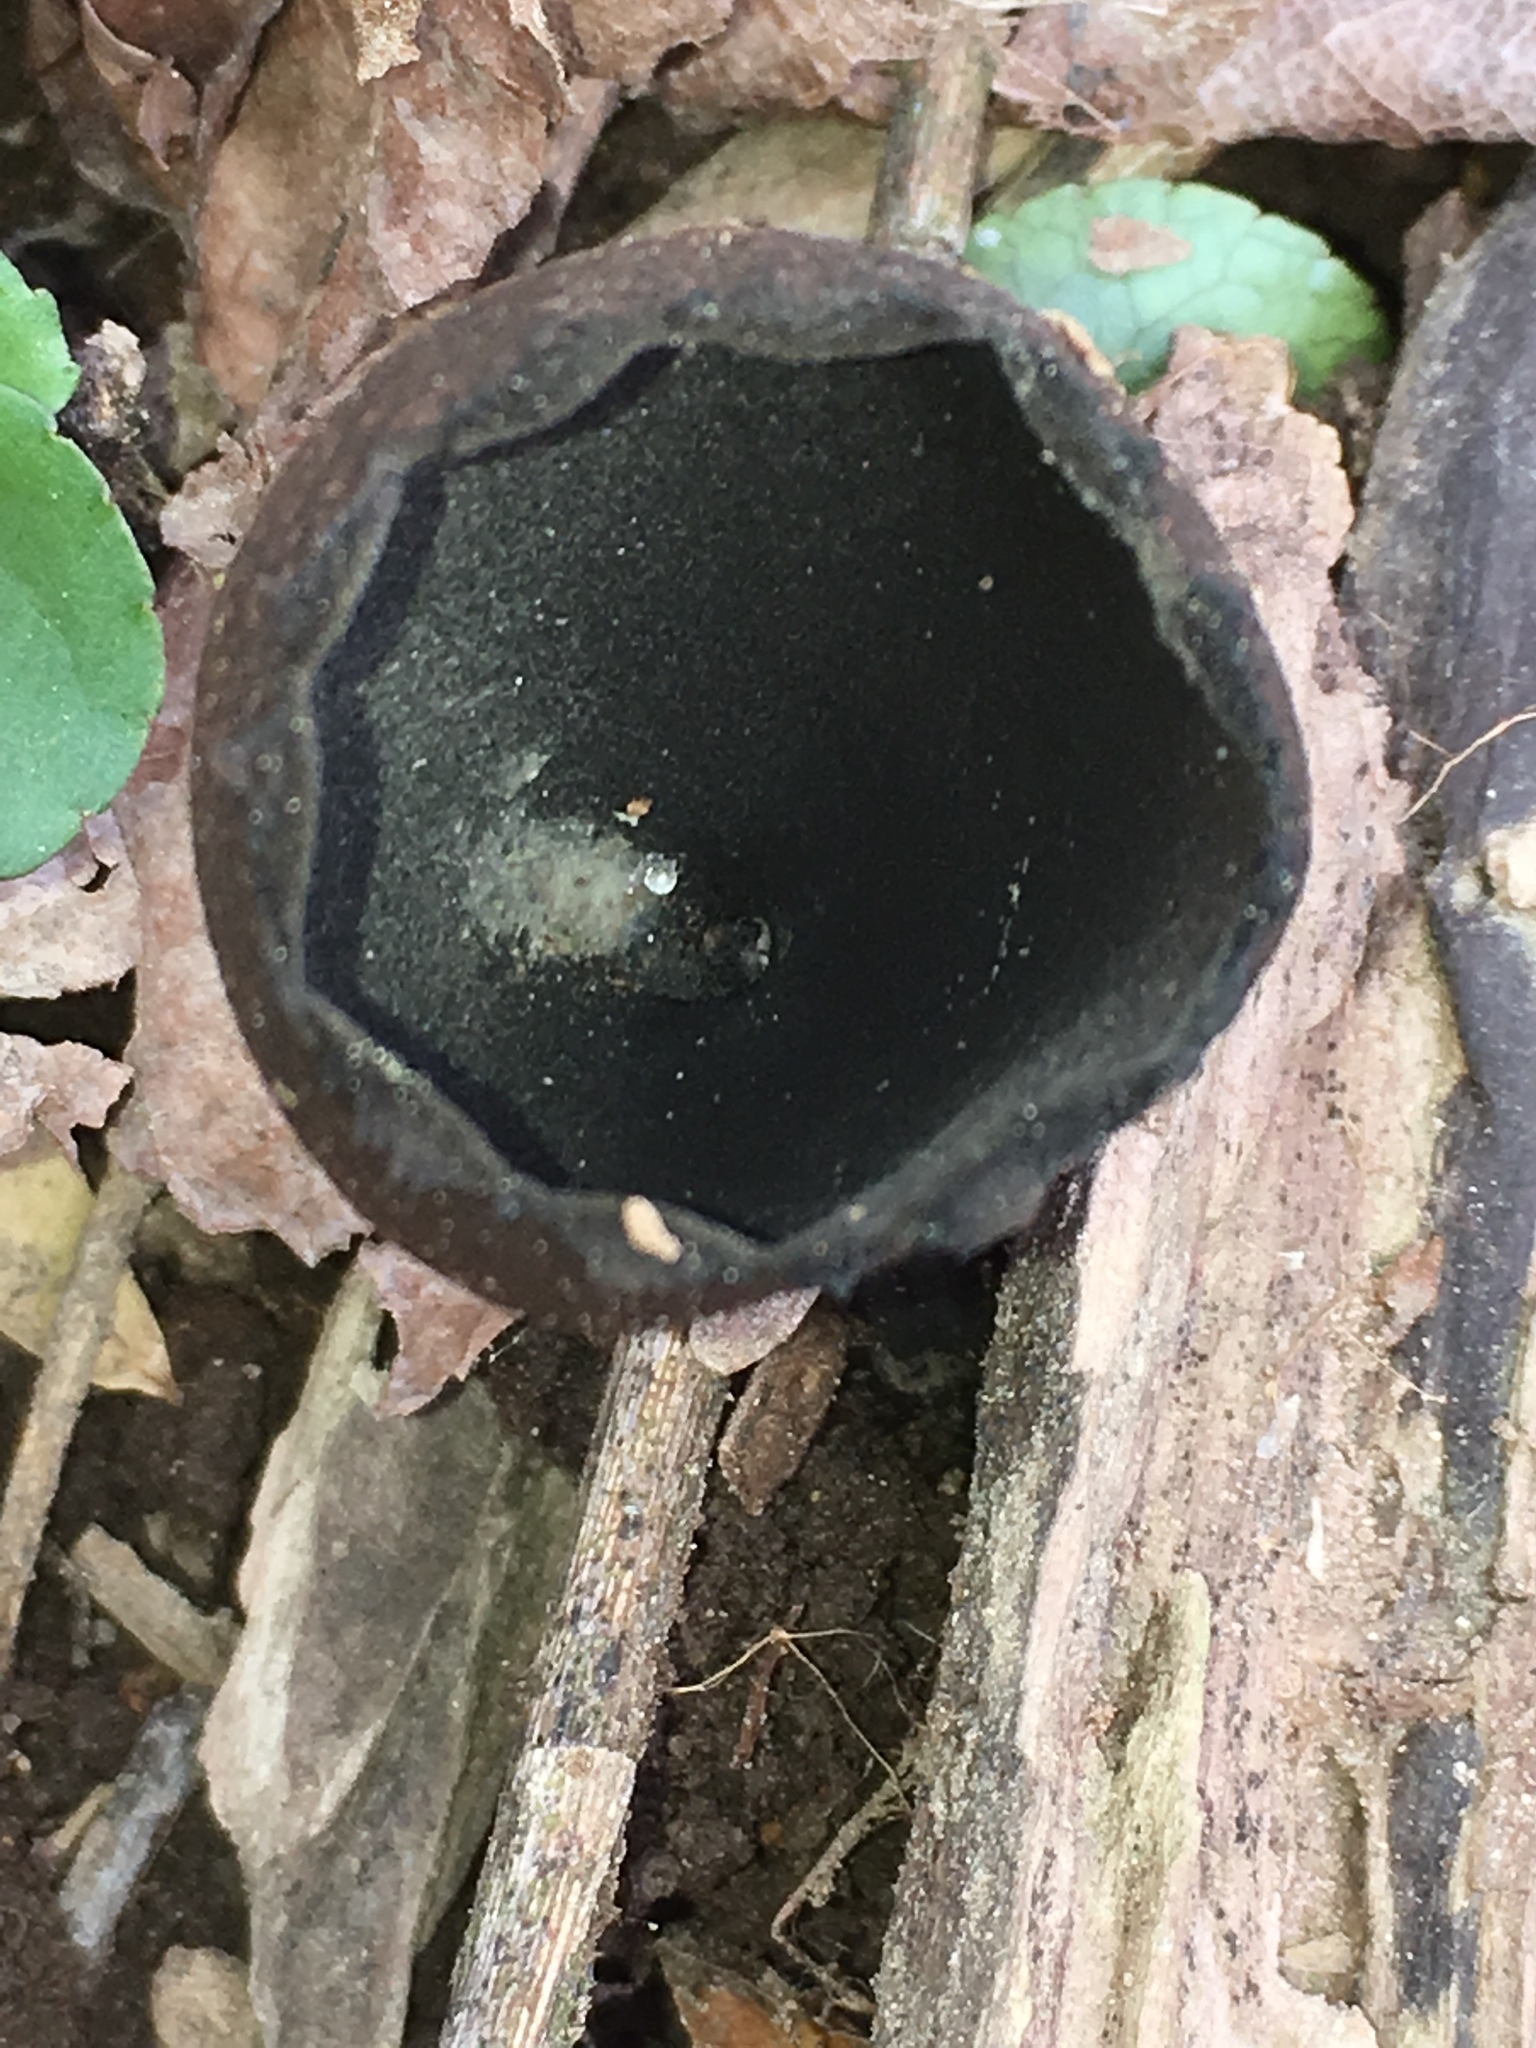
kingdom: Fungi
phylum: Ascomycota
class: Pezizomycetes
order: Pezizales
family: Sarcosomataceae
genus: Urnula
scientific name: Urnula craterium
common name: Devil's urn
